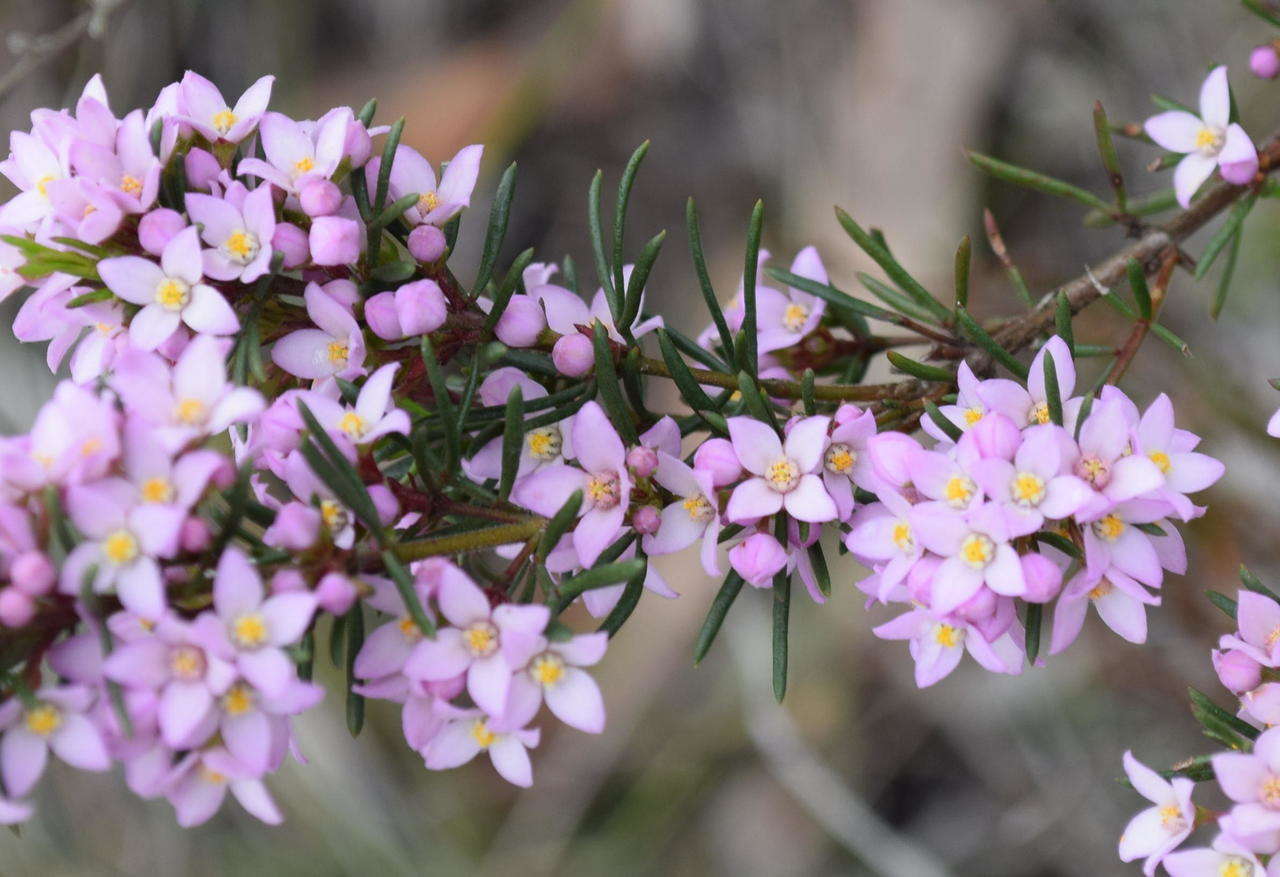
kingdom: Plantae
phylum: Tracheophyta
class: Magnoliopsida
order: Sapindales
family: Rutaceae
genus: Boronia
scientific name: Boronia pilosa
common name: Hairy boronia
